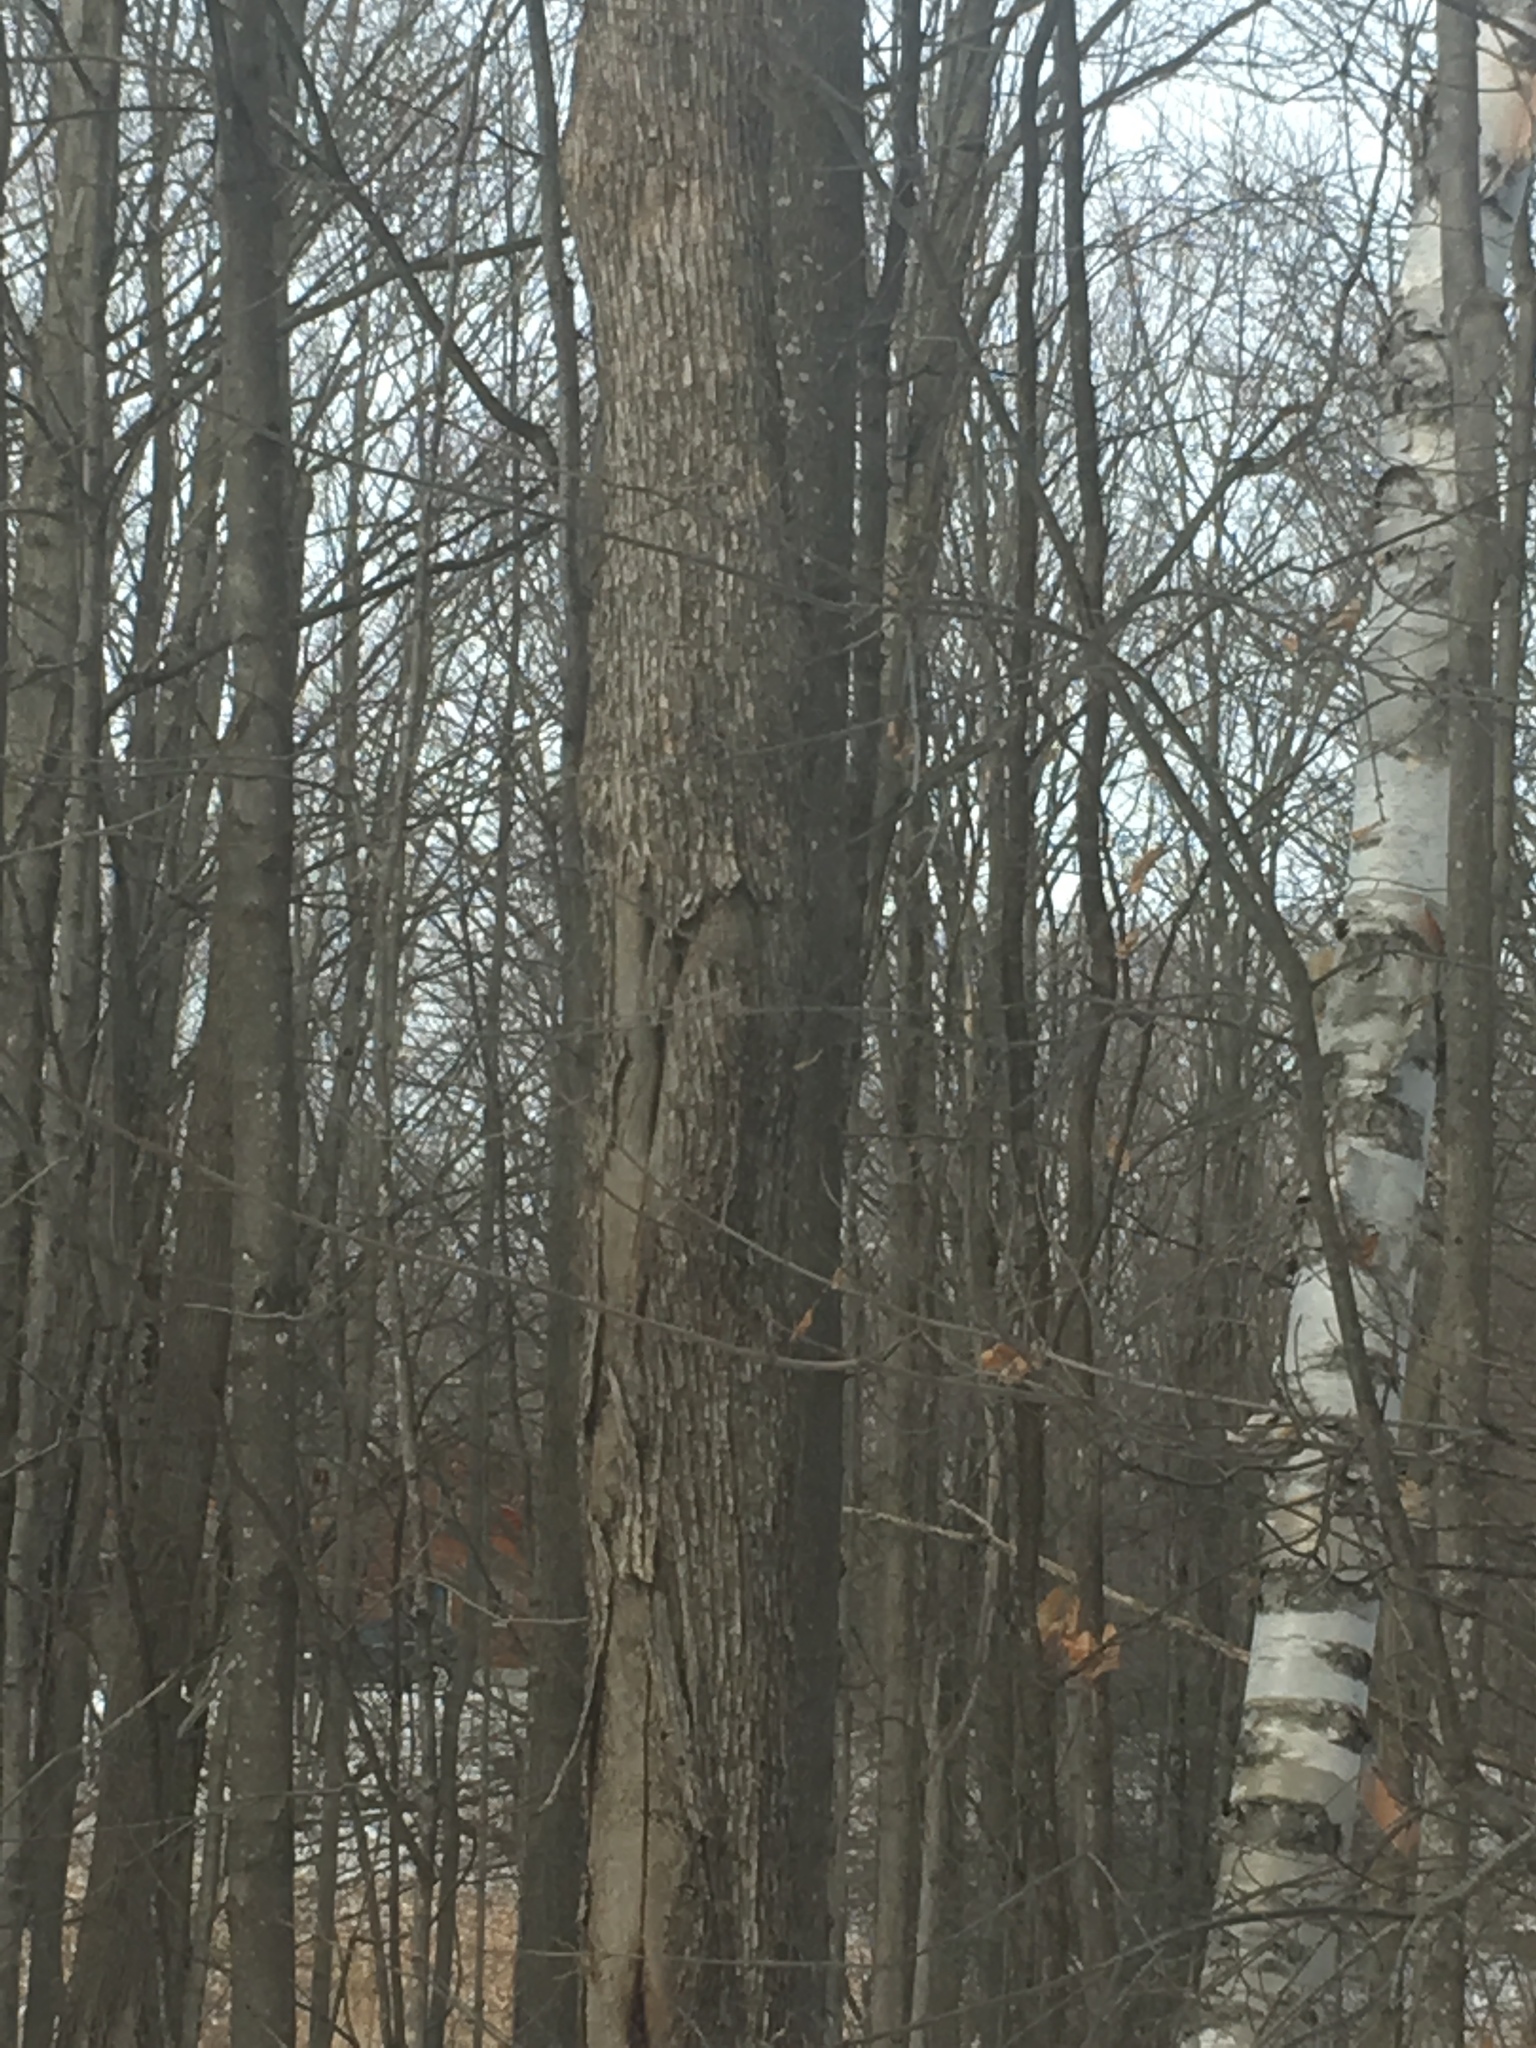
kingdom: Plantae
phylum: Tracheophyta
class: Magnoliopsida
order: Fagales
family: Betulaceae
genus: Ostrya
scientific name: Ostrya virginiana
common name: Ironwood
